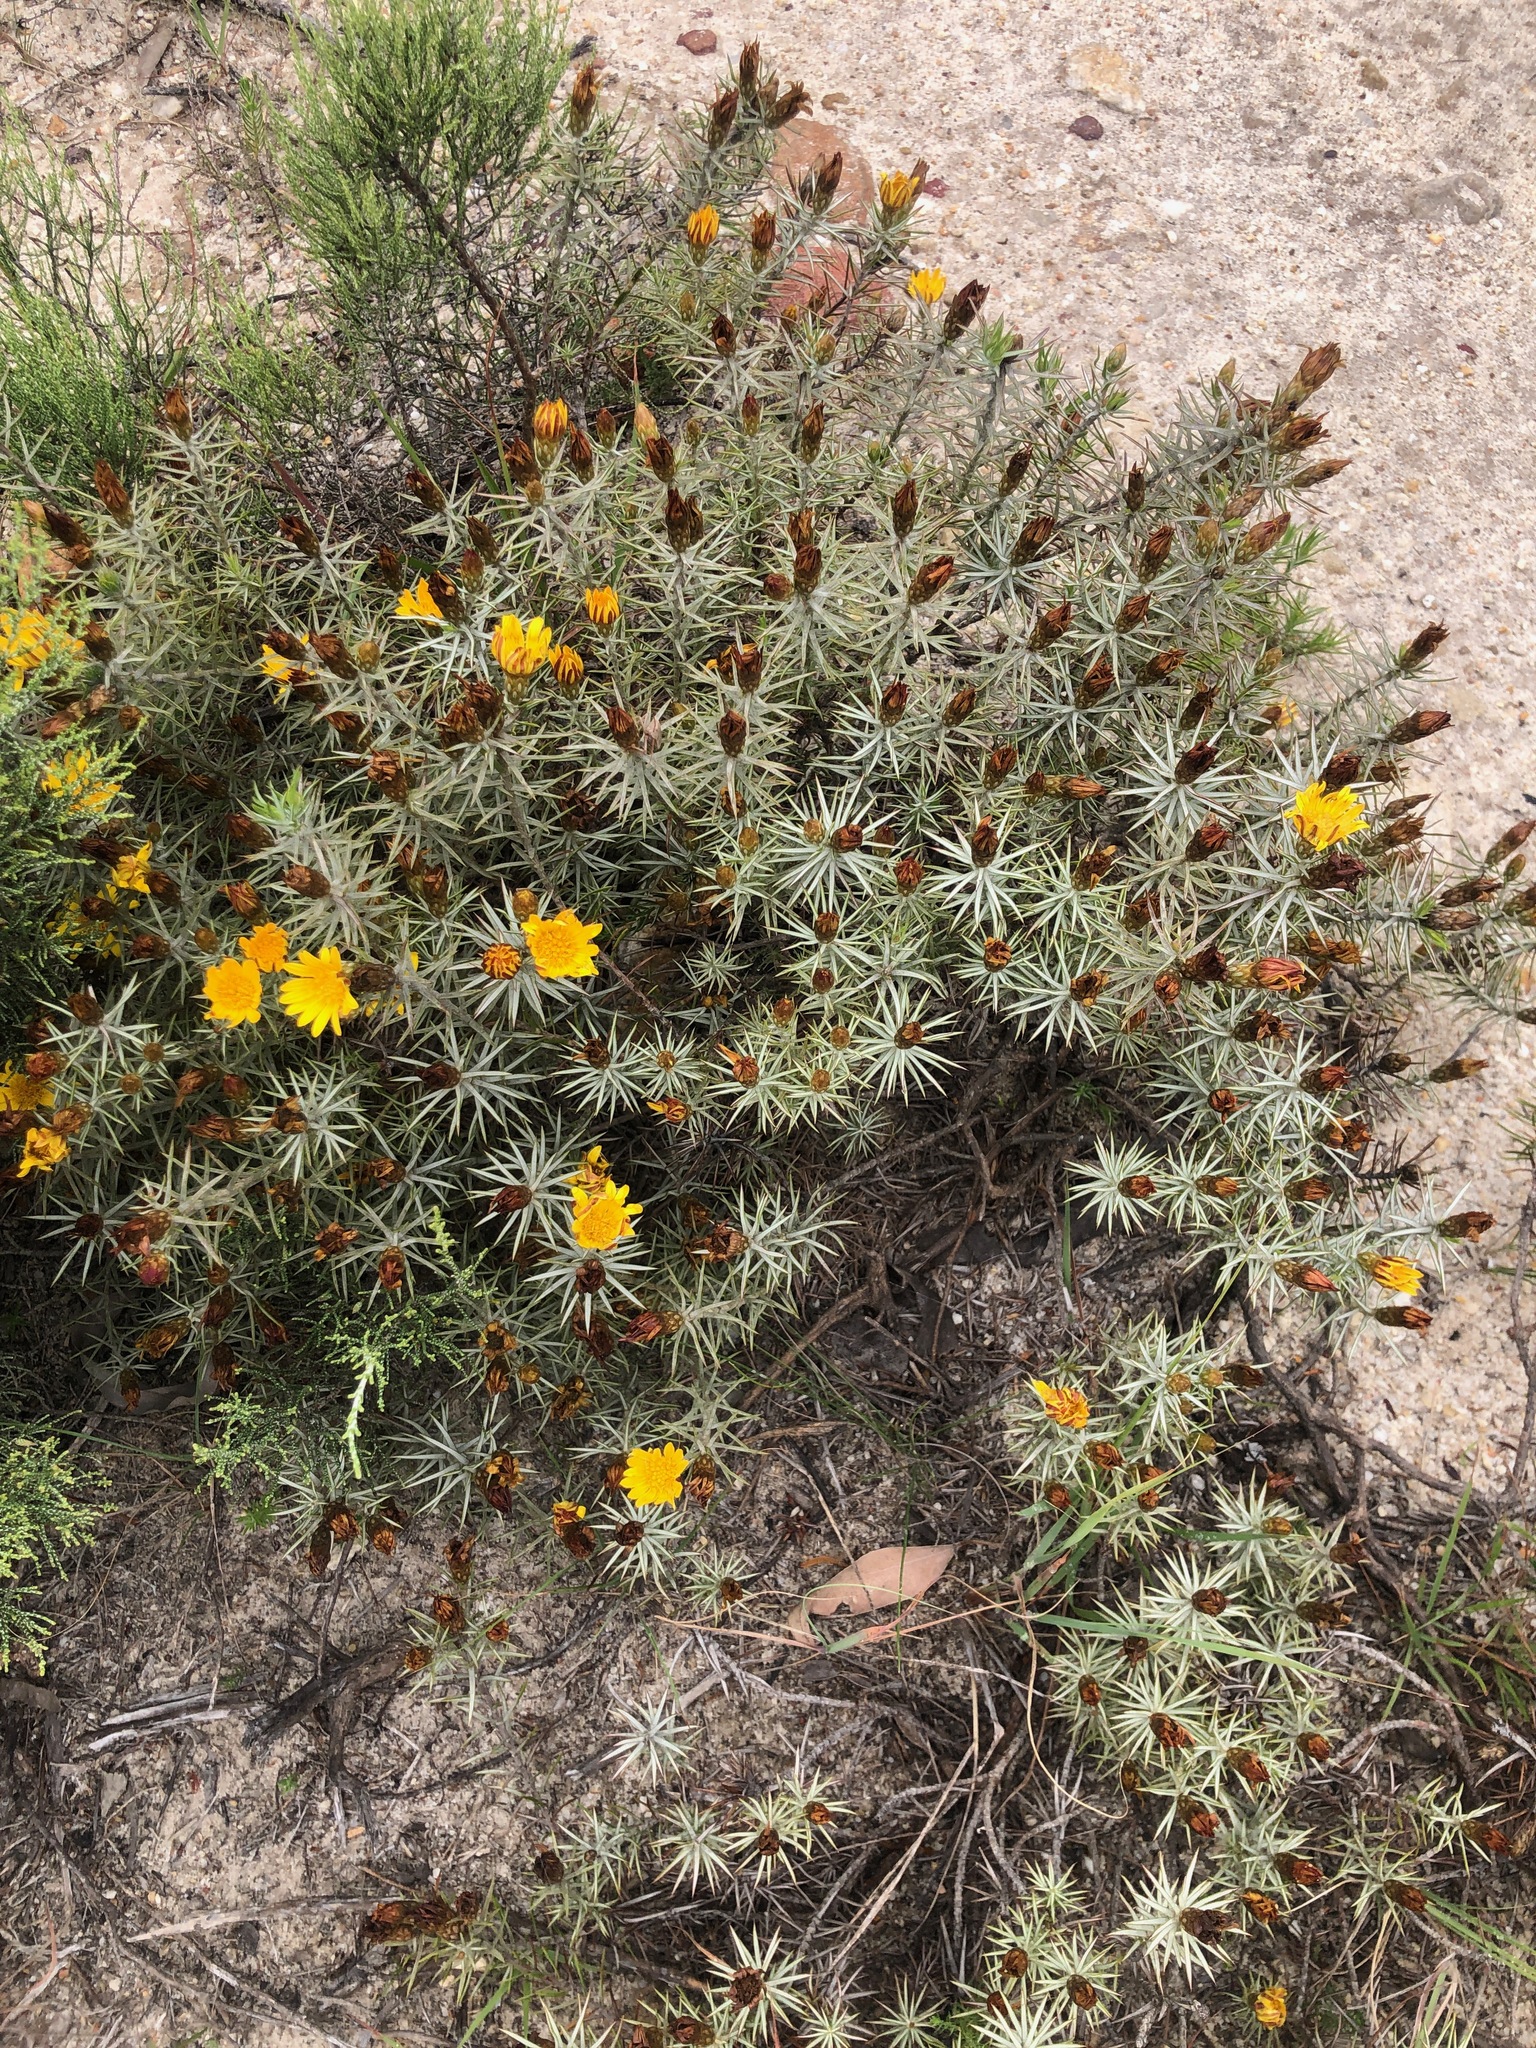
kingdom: Plantae
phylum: Tracheophyta
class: Magnoliopsida
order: Asterales
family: Asteraceae
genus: Oedera
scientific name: Oedera pungens
